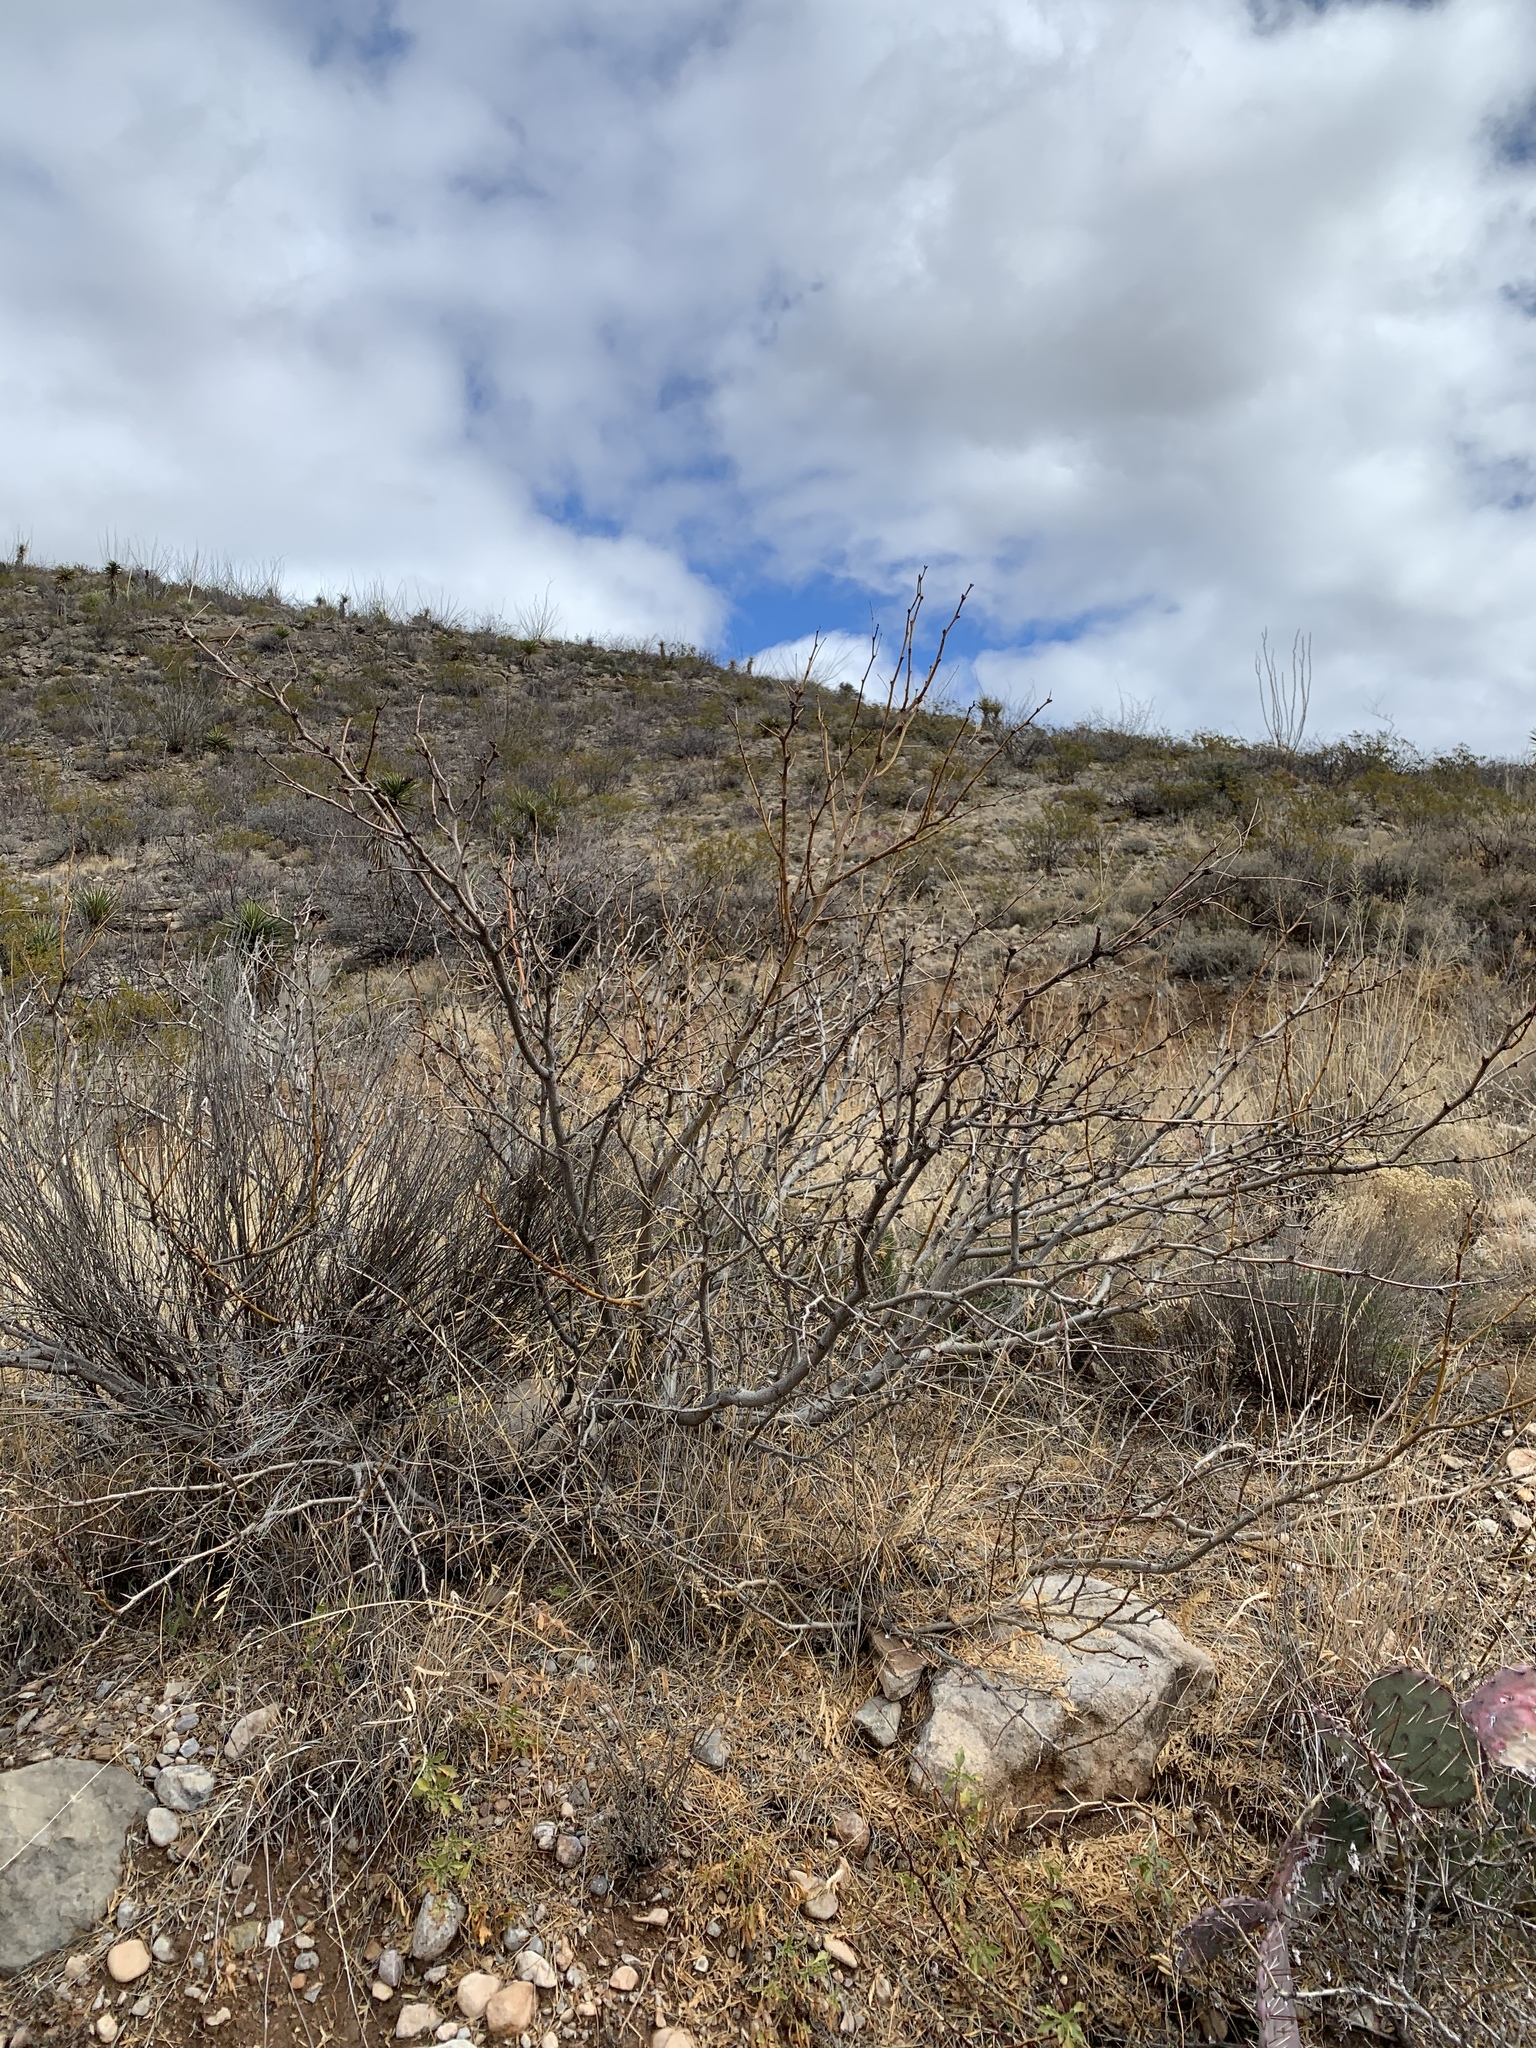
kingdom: Plantae
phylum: Tracheophyta
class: Magnoliopsida
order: Fabales
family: Fabaceae
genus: Prosopis
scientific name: Prosopis glandulosa
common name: Honey mesquite
